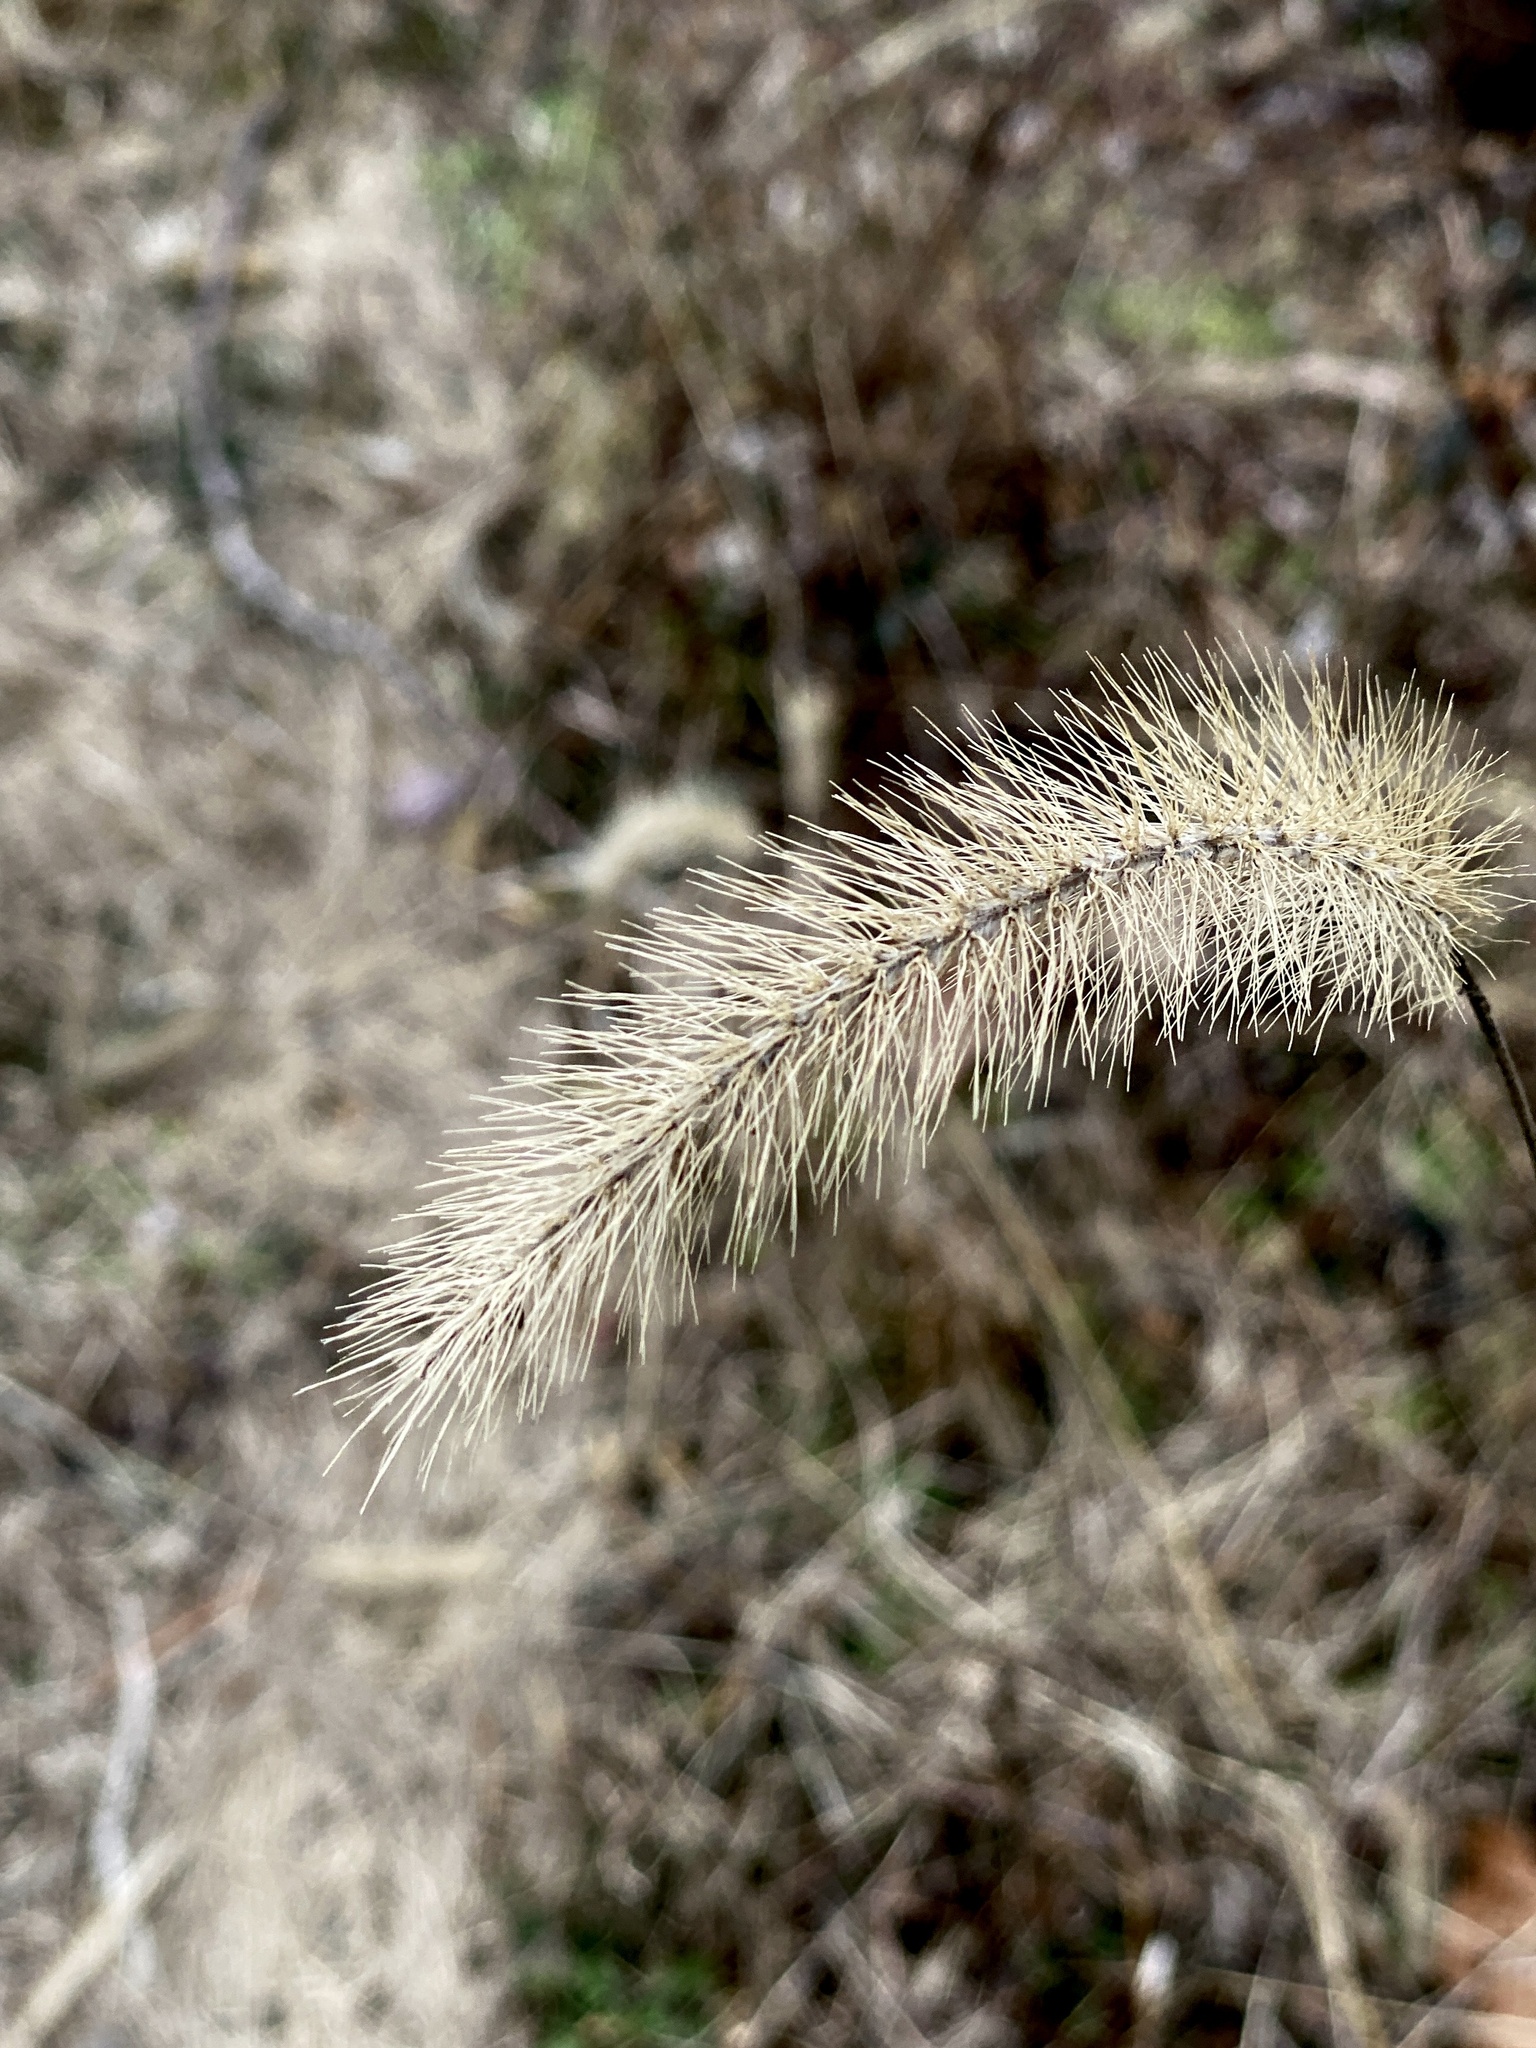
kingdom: Plantae
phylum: Tracheophyta
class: Liliopsida
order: Poales
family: Poaceae
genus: Setaria
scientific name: Setaria faberi
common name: Nodding bristle-grass
